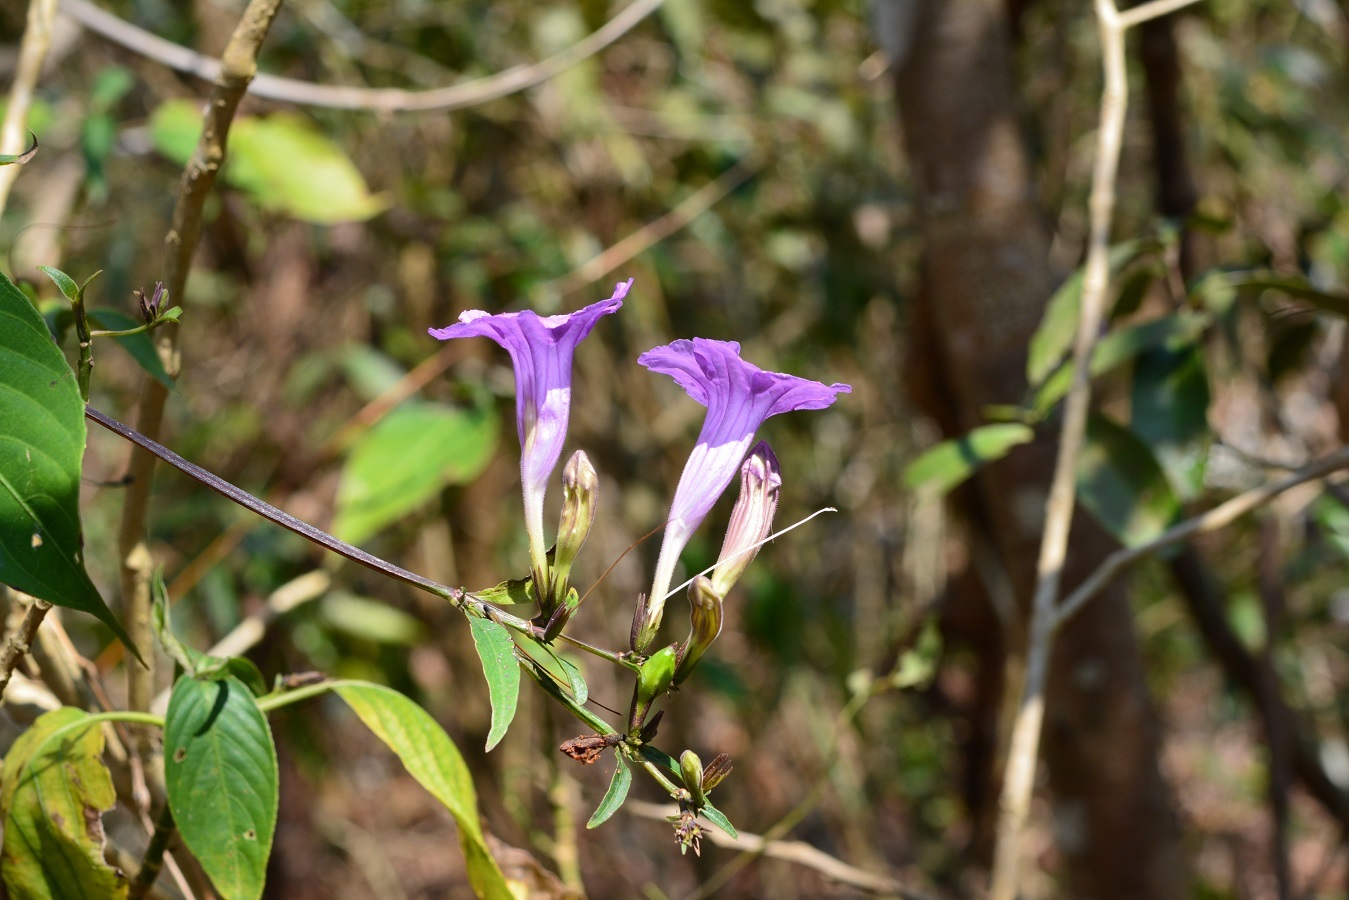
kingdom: Plantae
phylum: Tracheophyta
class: Magnoliopsida
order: Lamiales
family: Acanthaceae
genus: Ruellia
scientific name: Ruellia breedlovei
